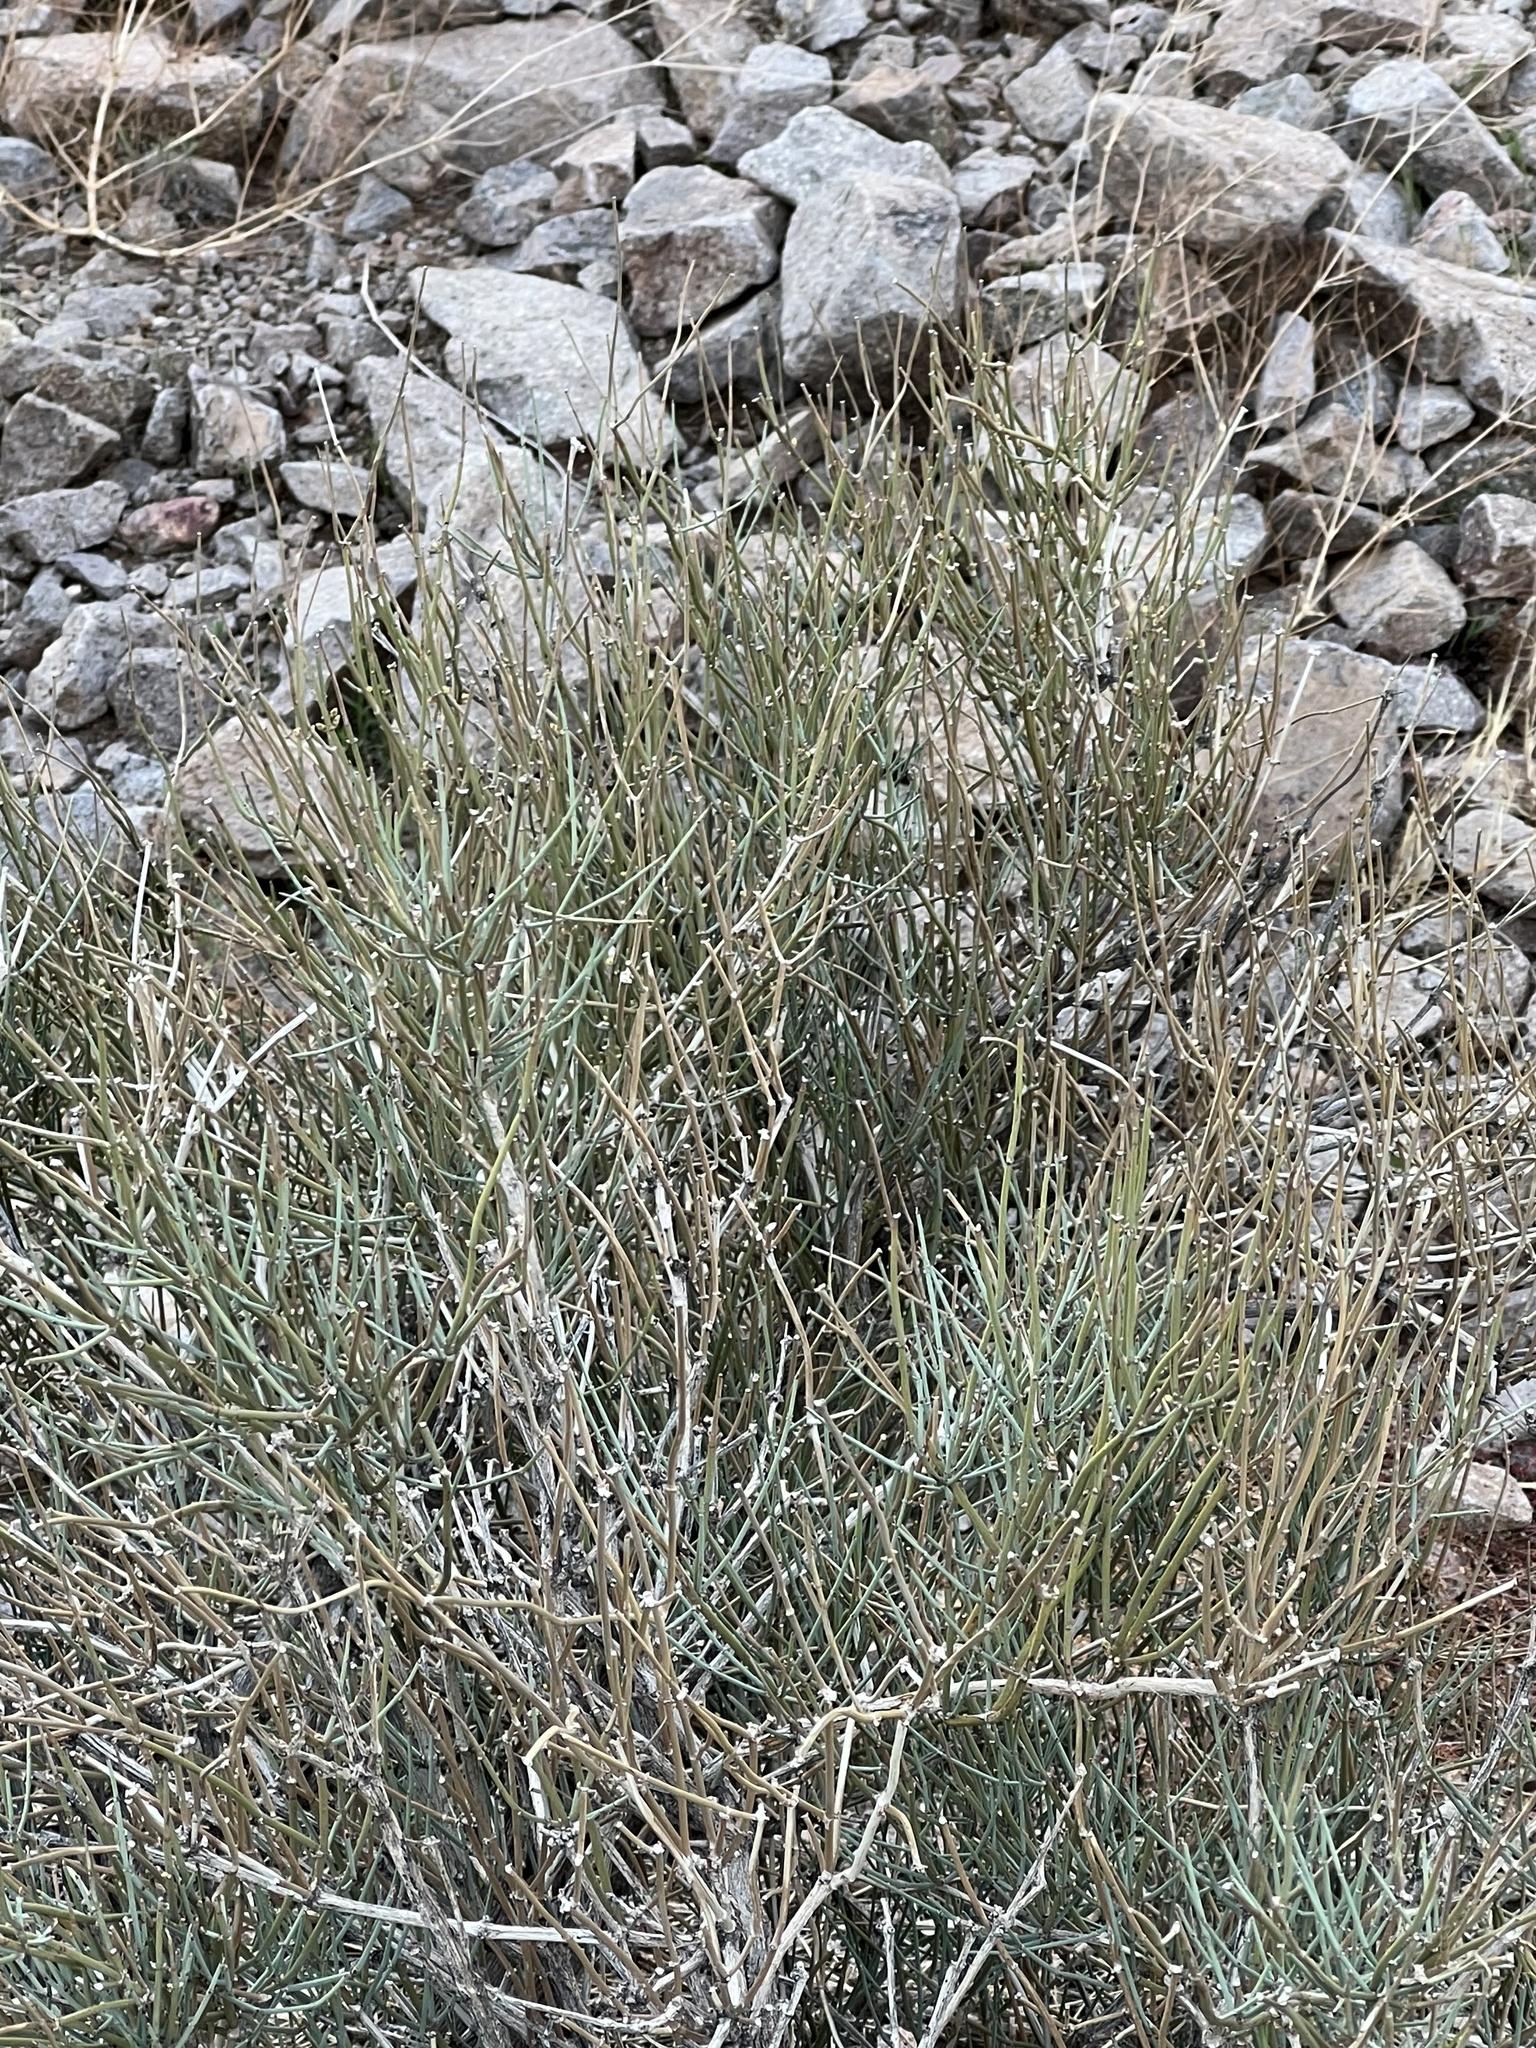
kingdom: Plantae
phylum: Tracheophyta
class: Gnetopsida
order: Ephedrales
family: Ephedraceae
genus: Ephedra
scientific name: Ephedra nevadensis
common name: Gray ephedra
